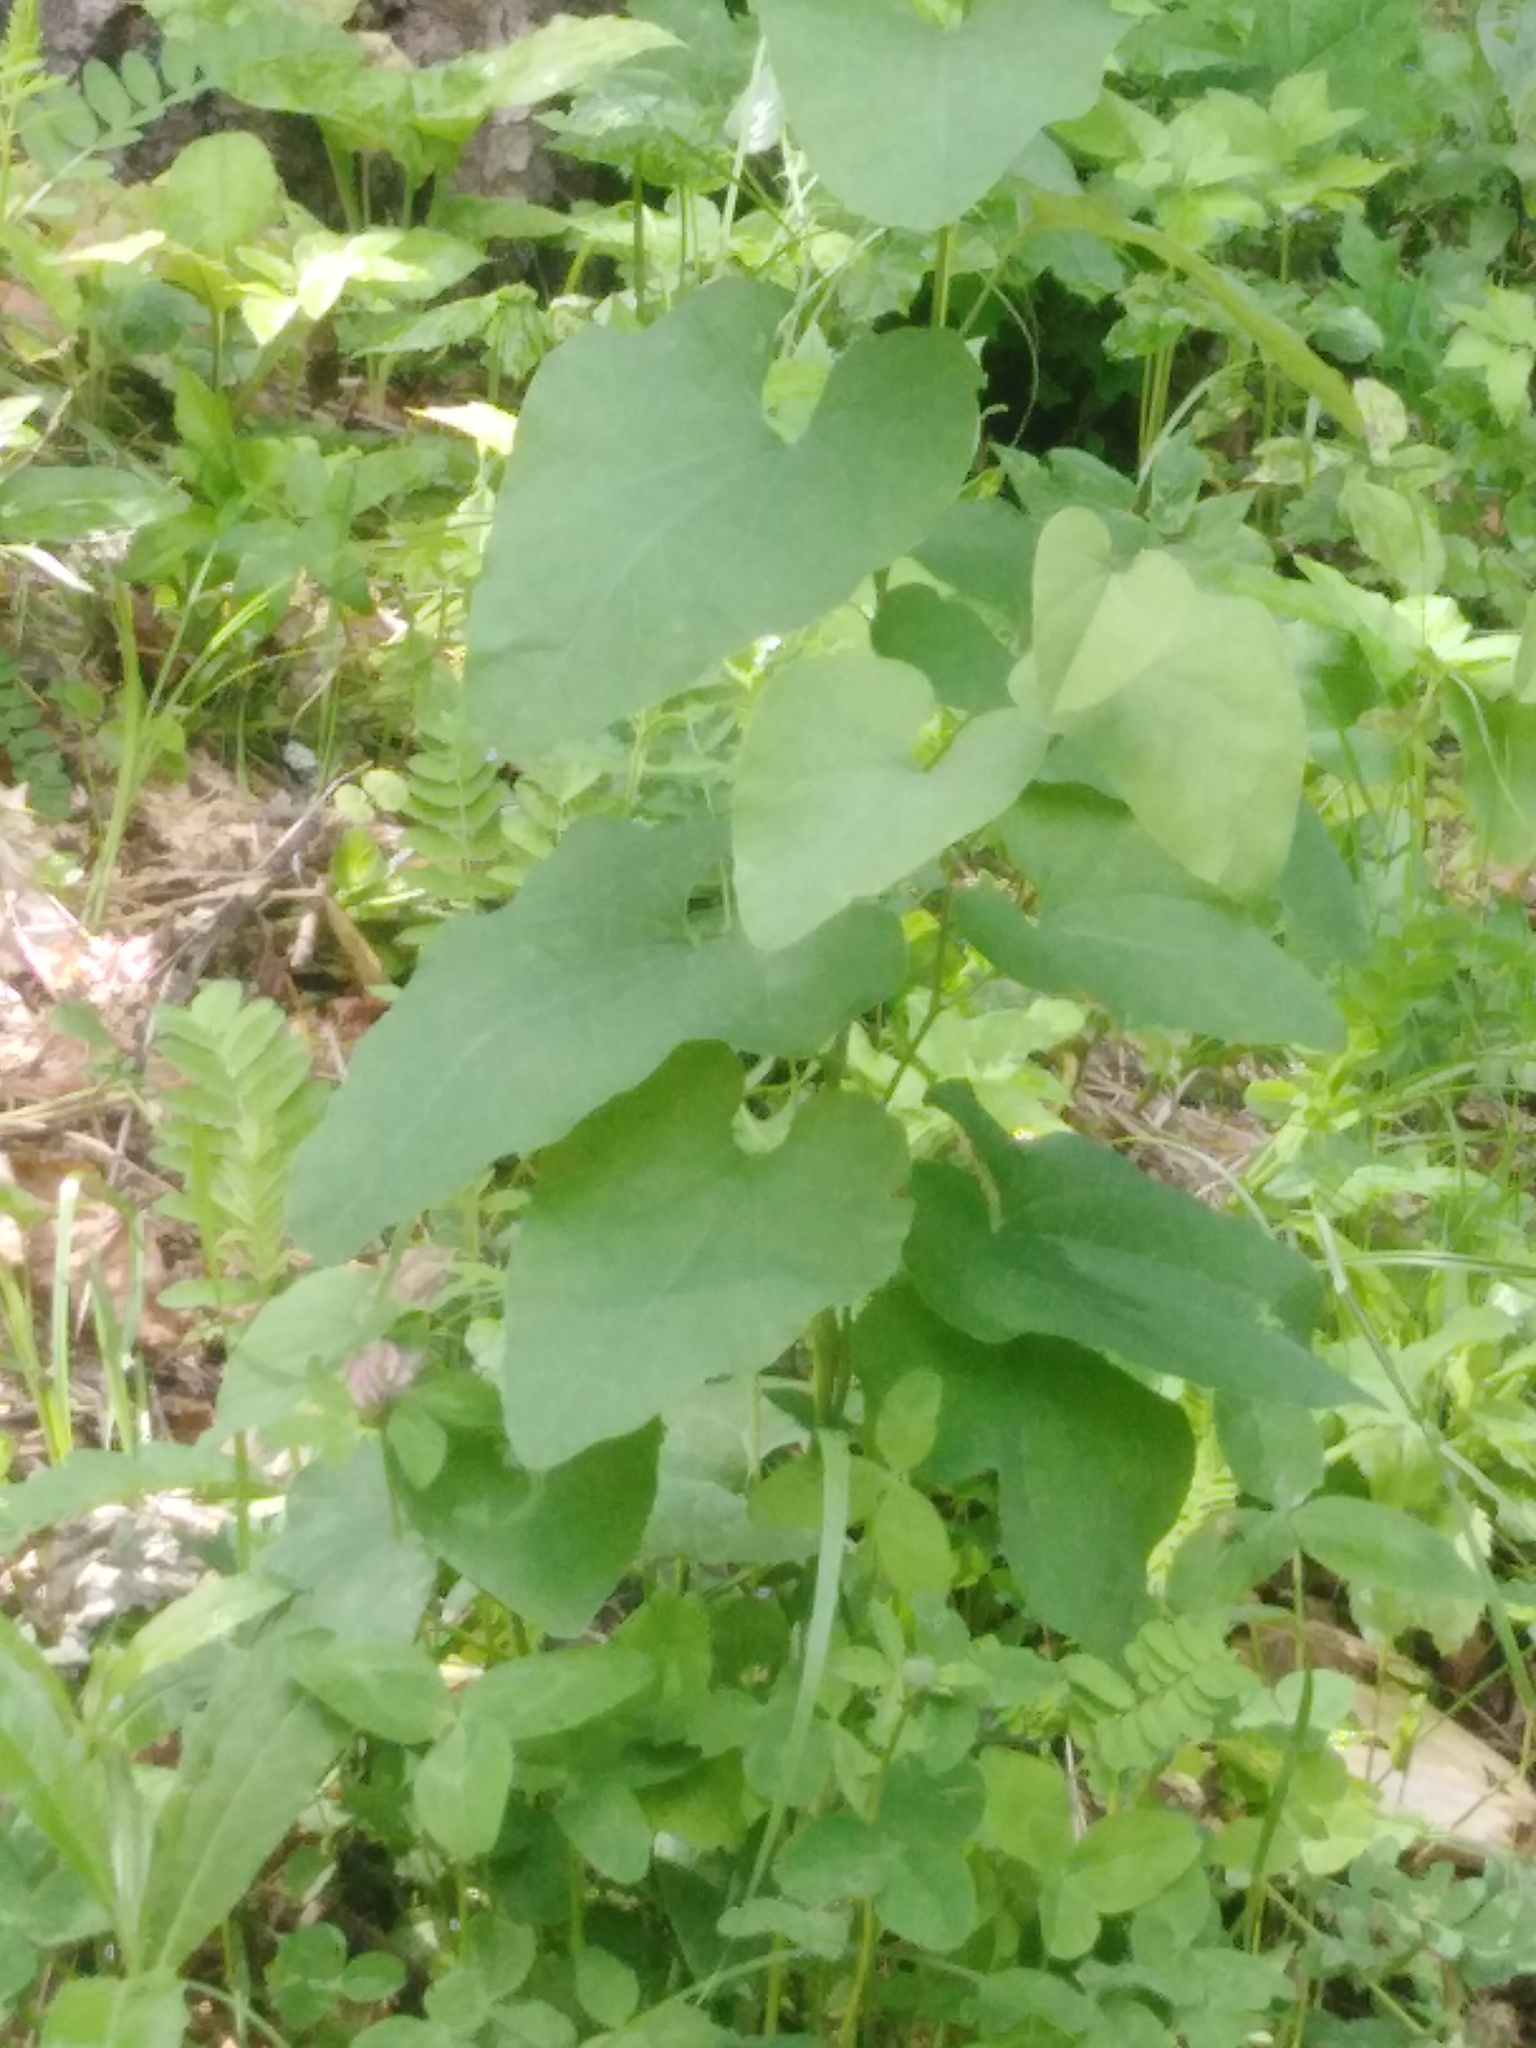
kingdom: Plantae
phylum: Tracheophyta
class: Magnoliopsida
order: Piperales
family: Aristolochiaceae
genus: Aristolochia
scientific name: Aristolochia clematitis
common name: Birthwort
